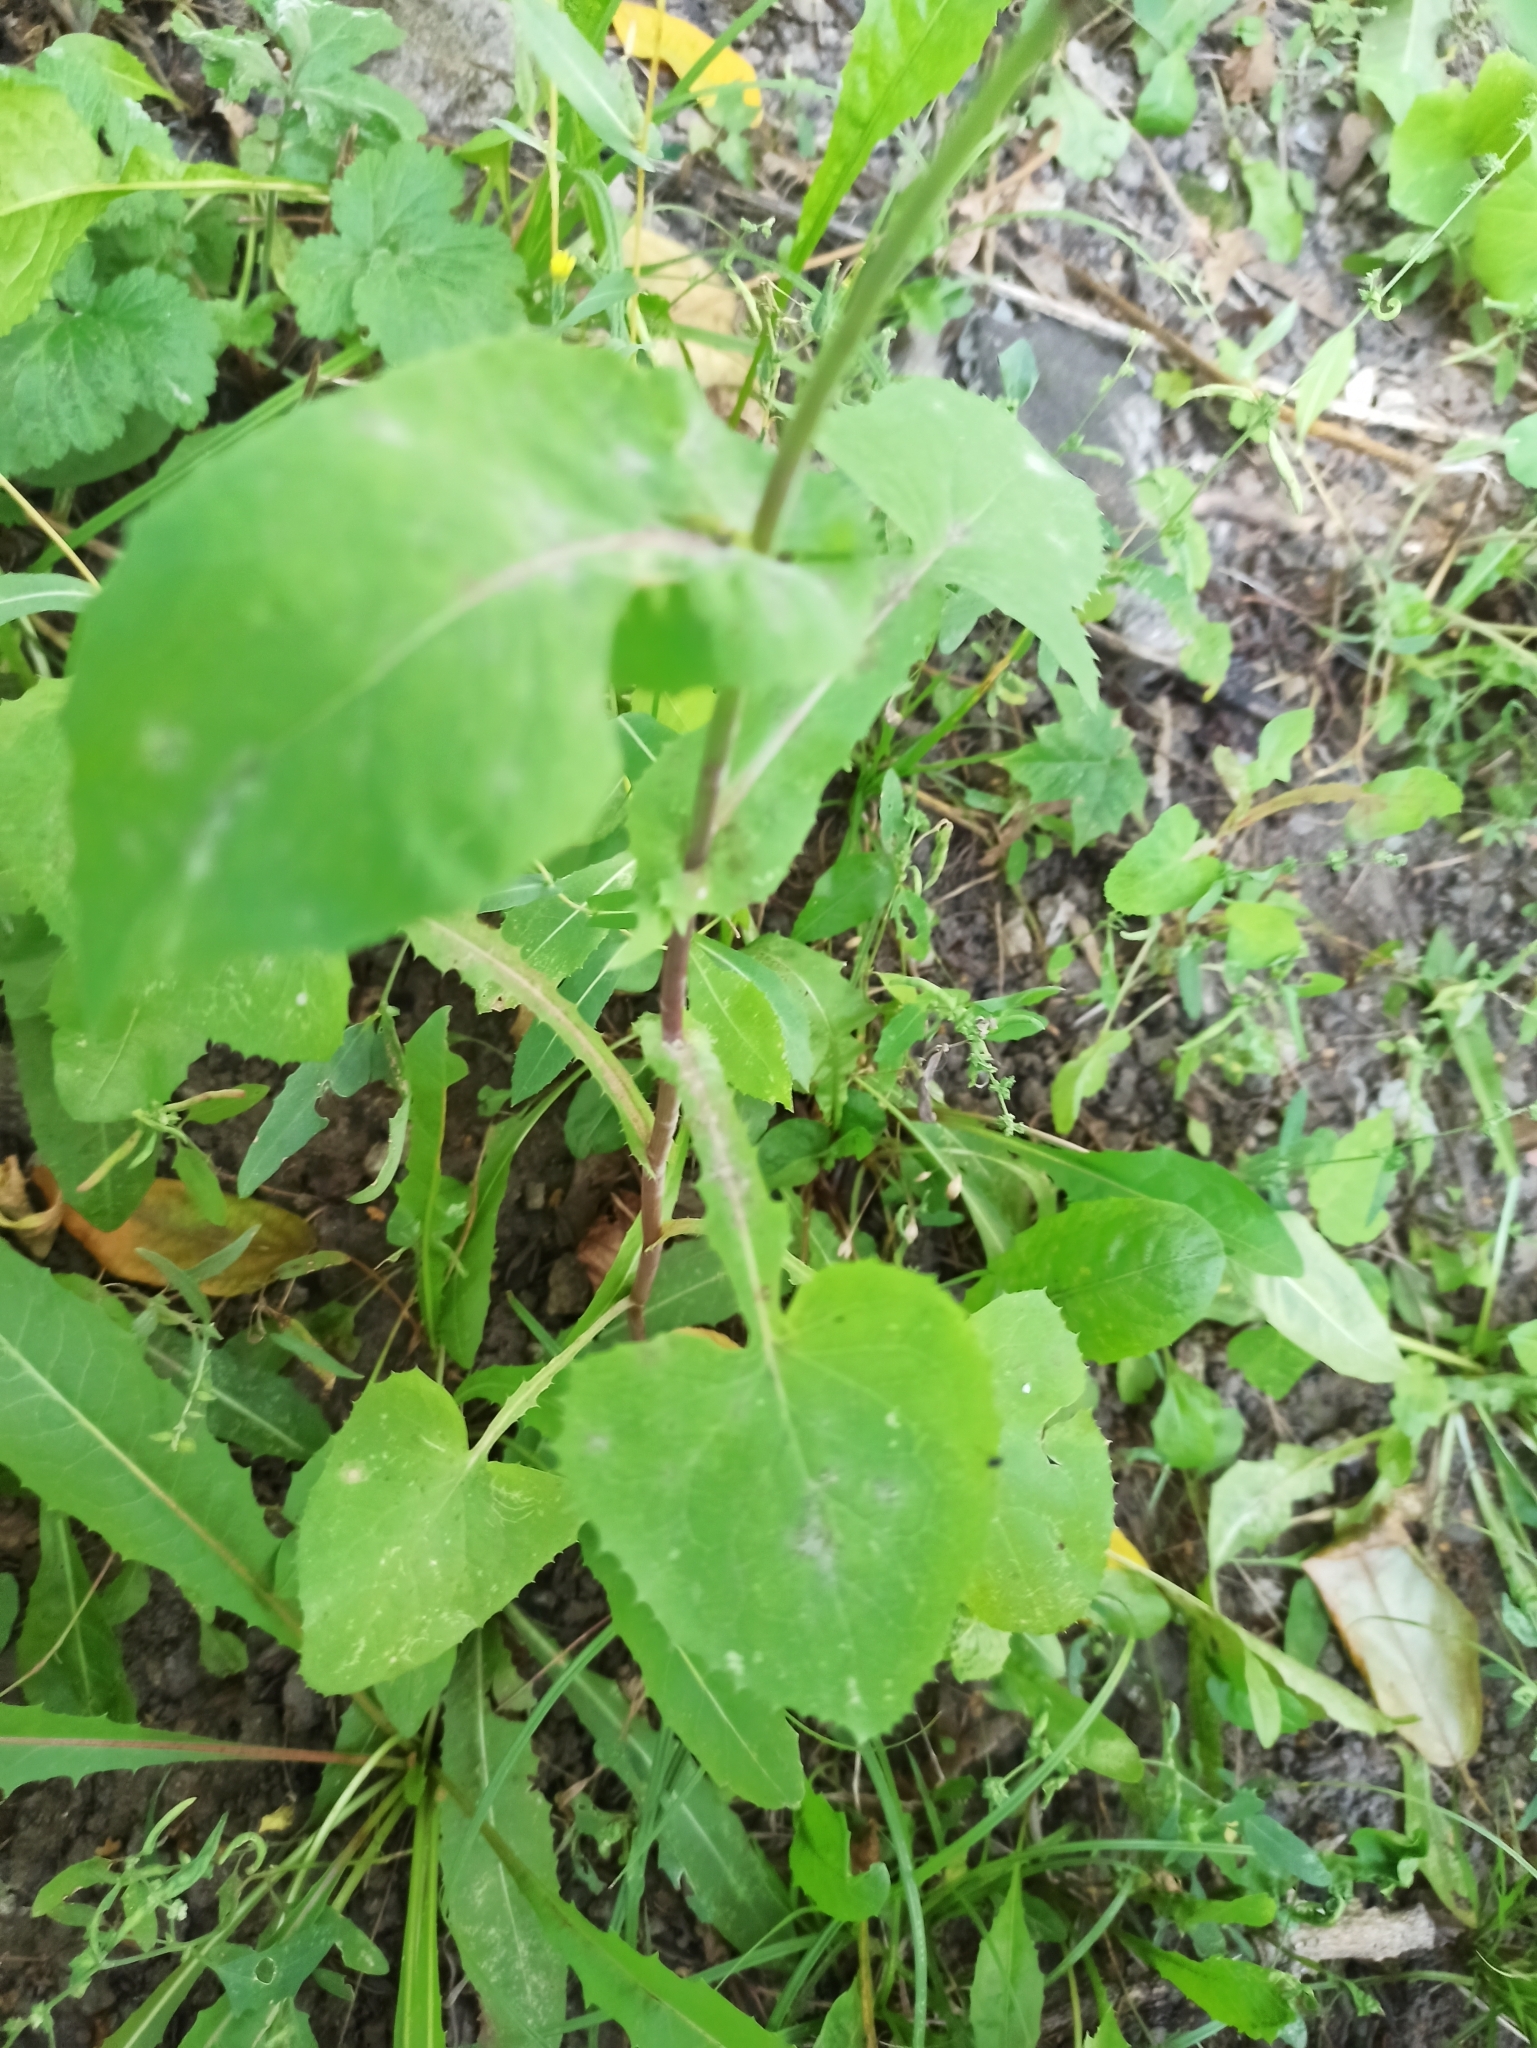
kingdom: Plantae
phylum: Tracheophyta
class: Magnoliopsida
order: Asterales
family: Asteraceae
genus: Sonchus
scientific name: Sonchus oleraceus
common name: Common sowthistle
